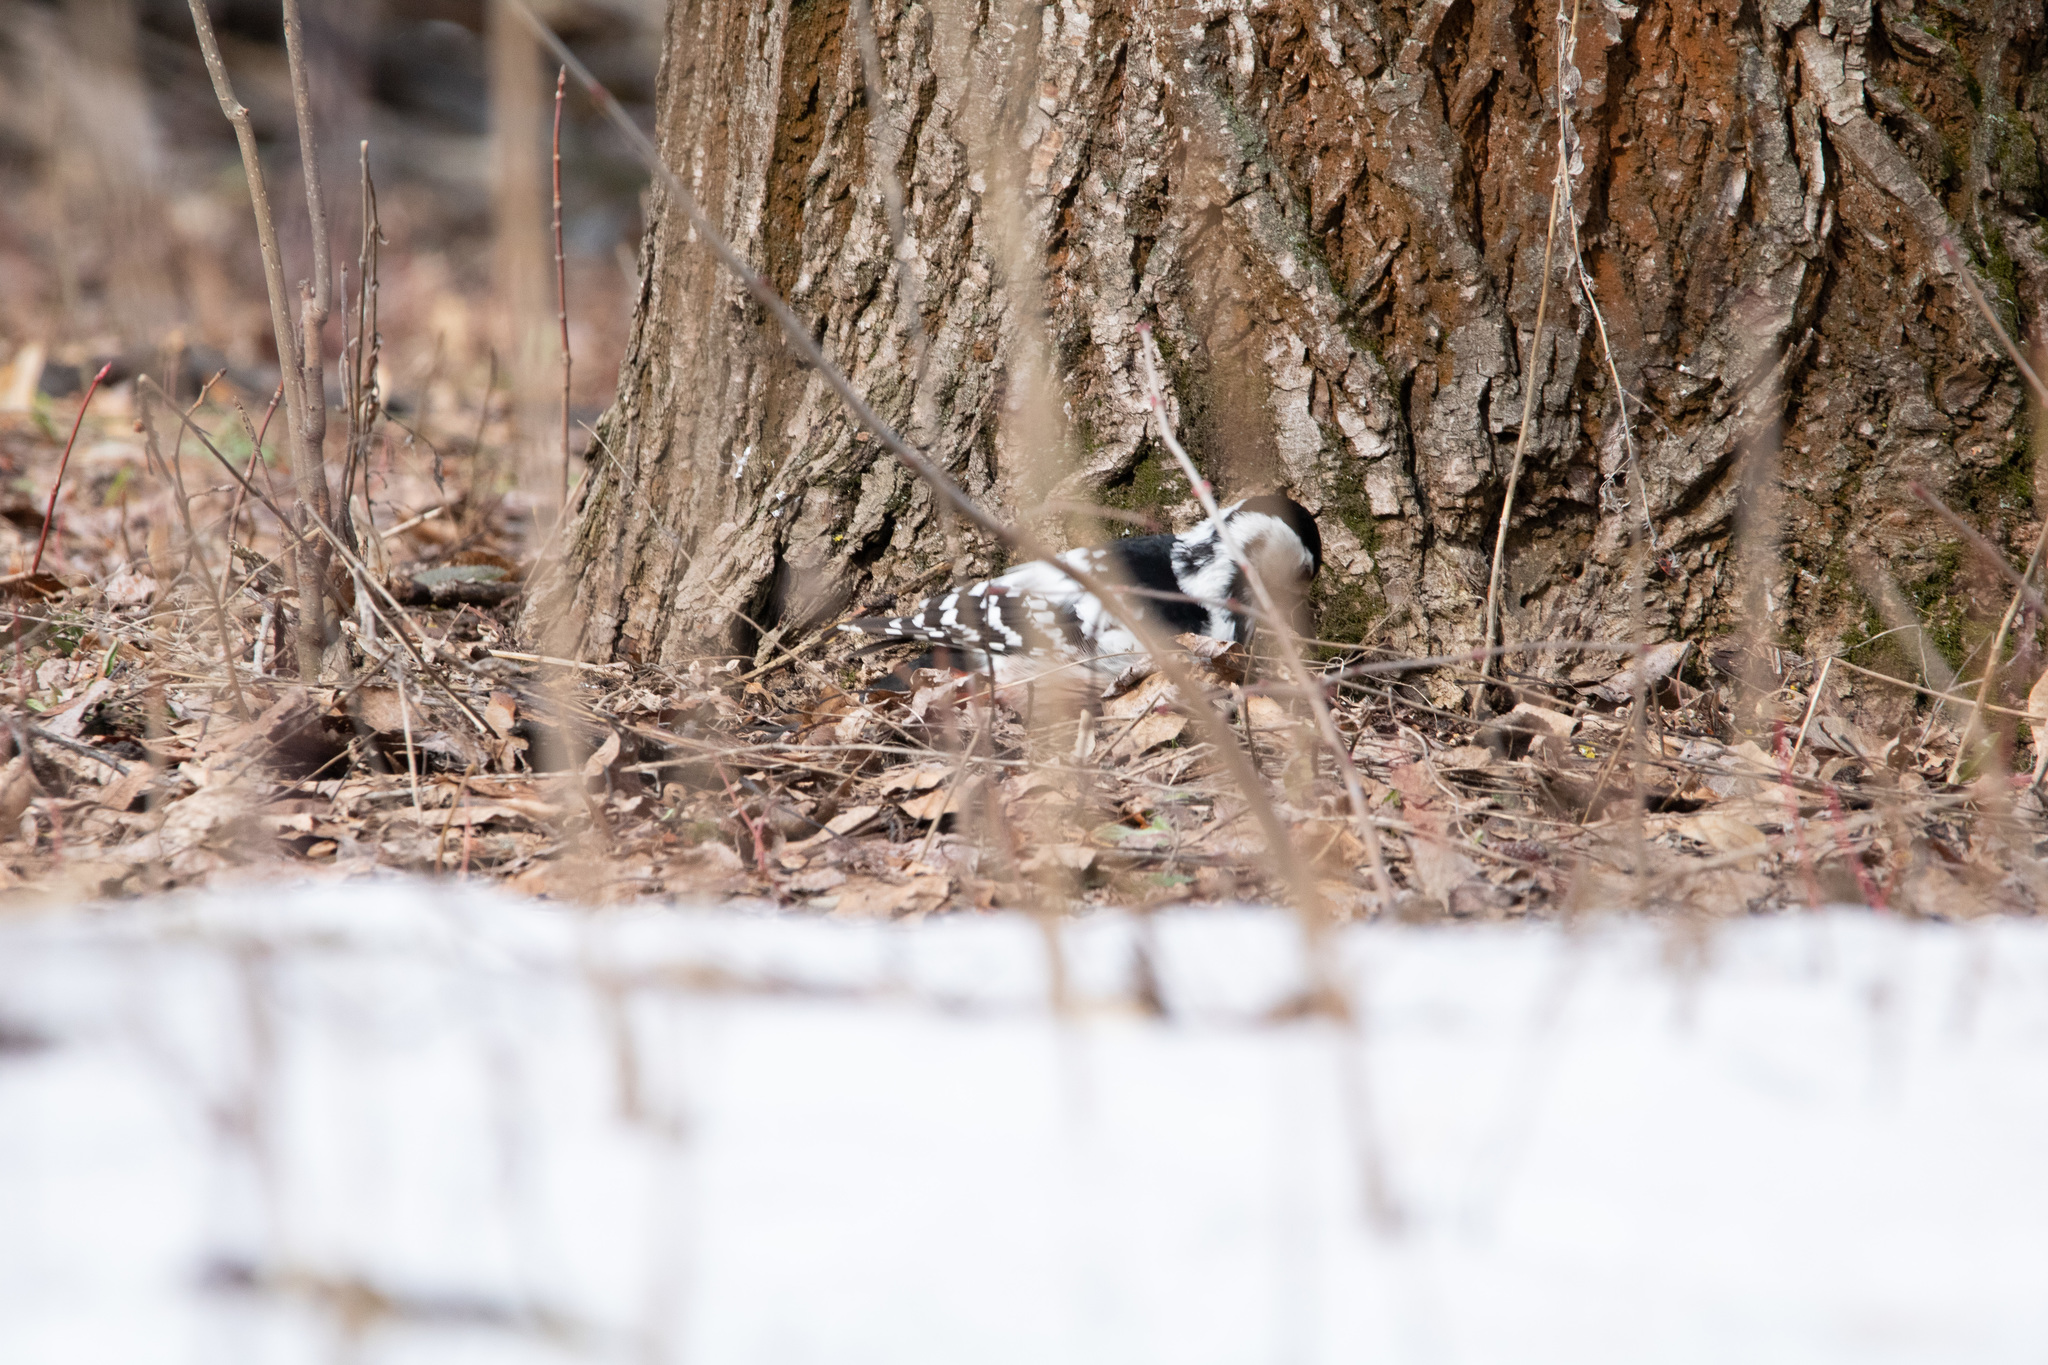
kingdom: Animalia
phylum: Chordata
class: Aves
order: Piciformes
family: Picidae
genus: Dendrocopos
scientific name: Dendrocopos leucotos
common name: White-backed woodpecker
